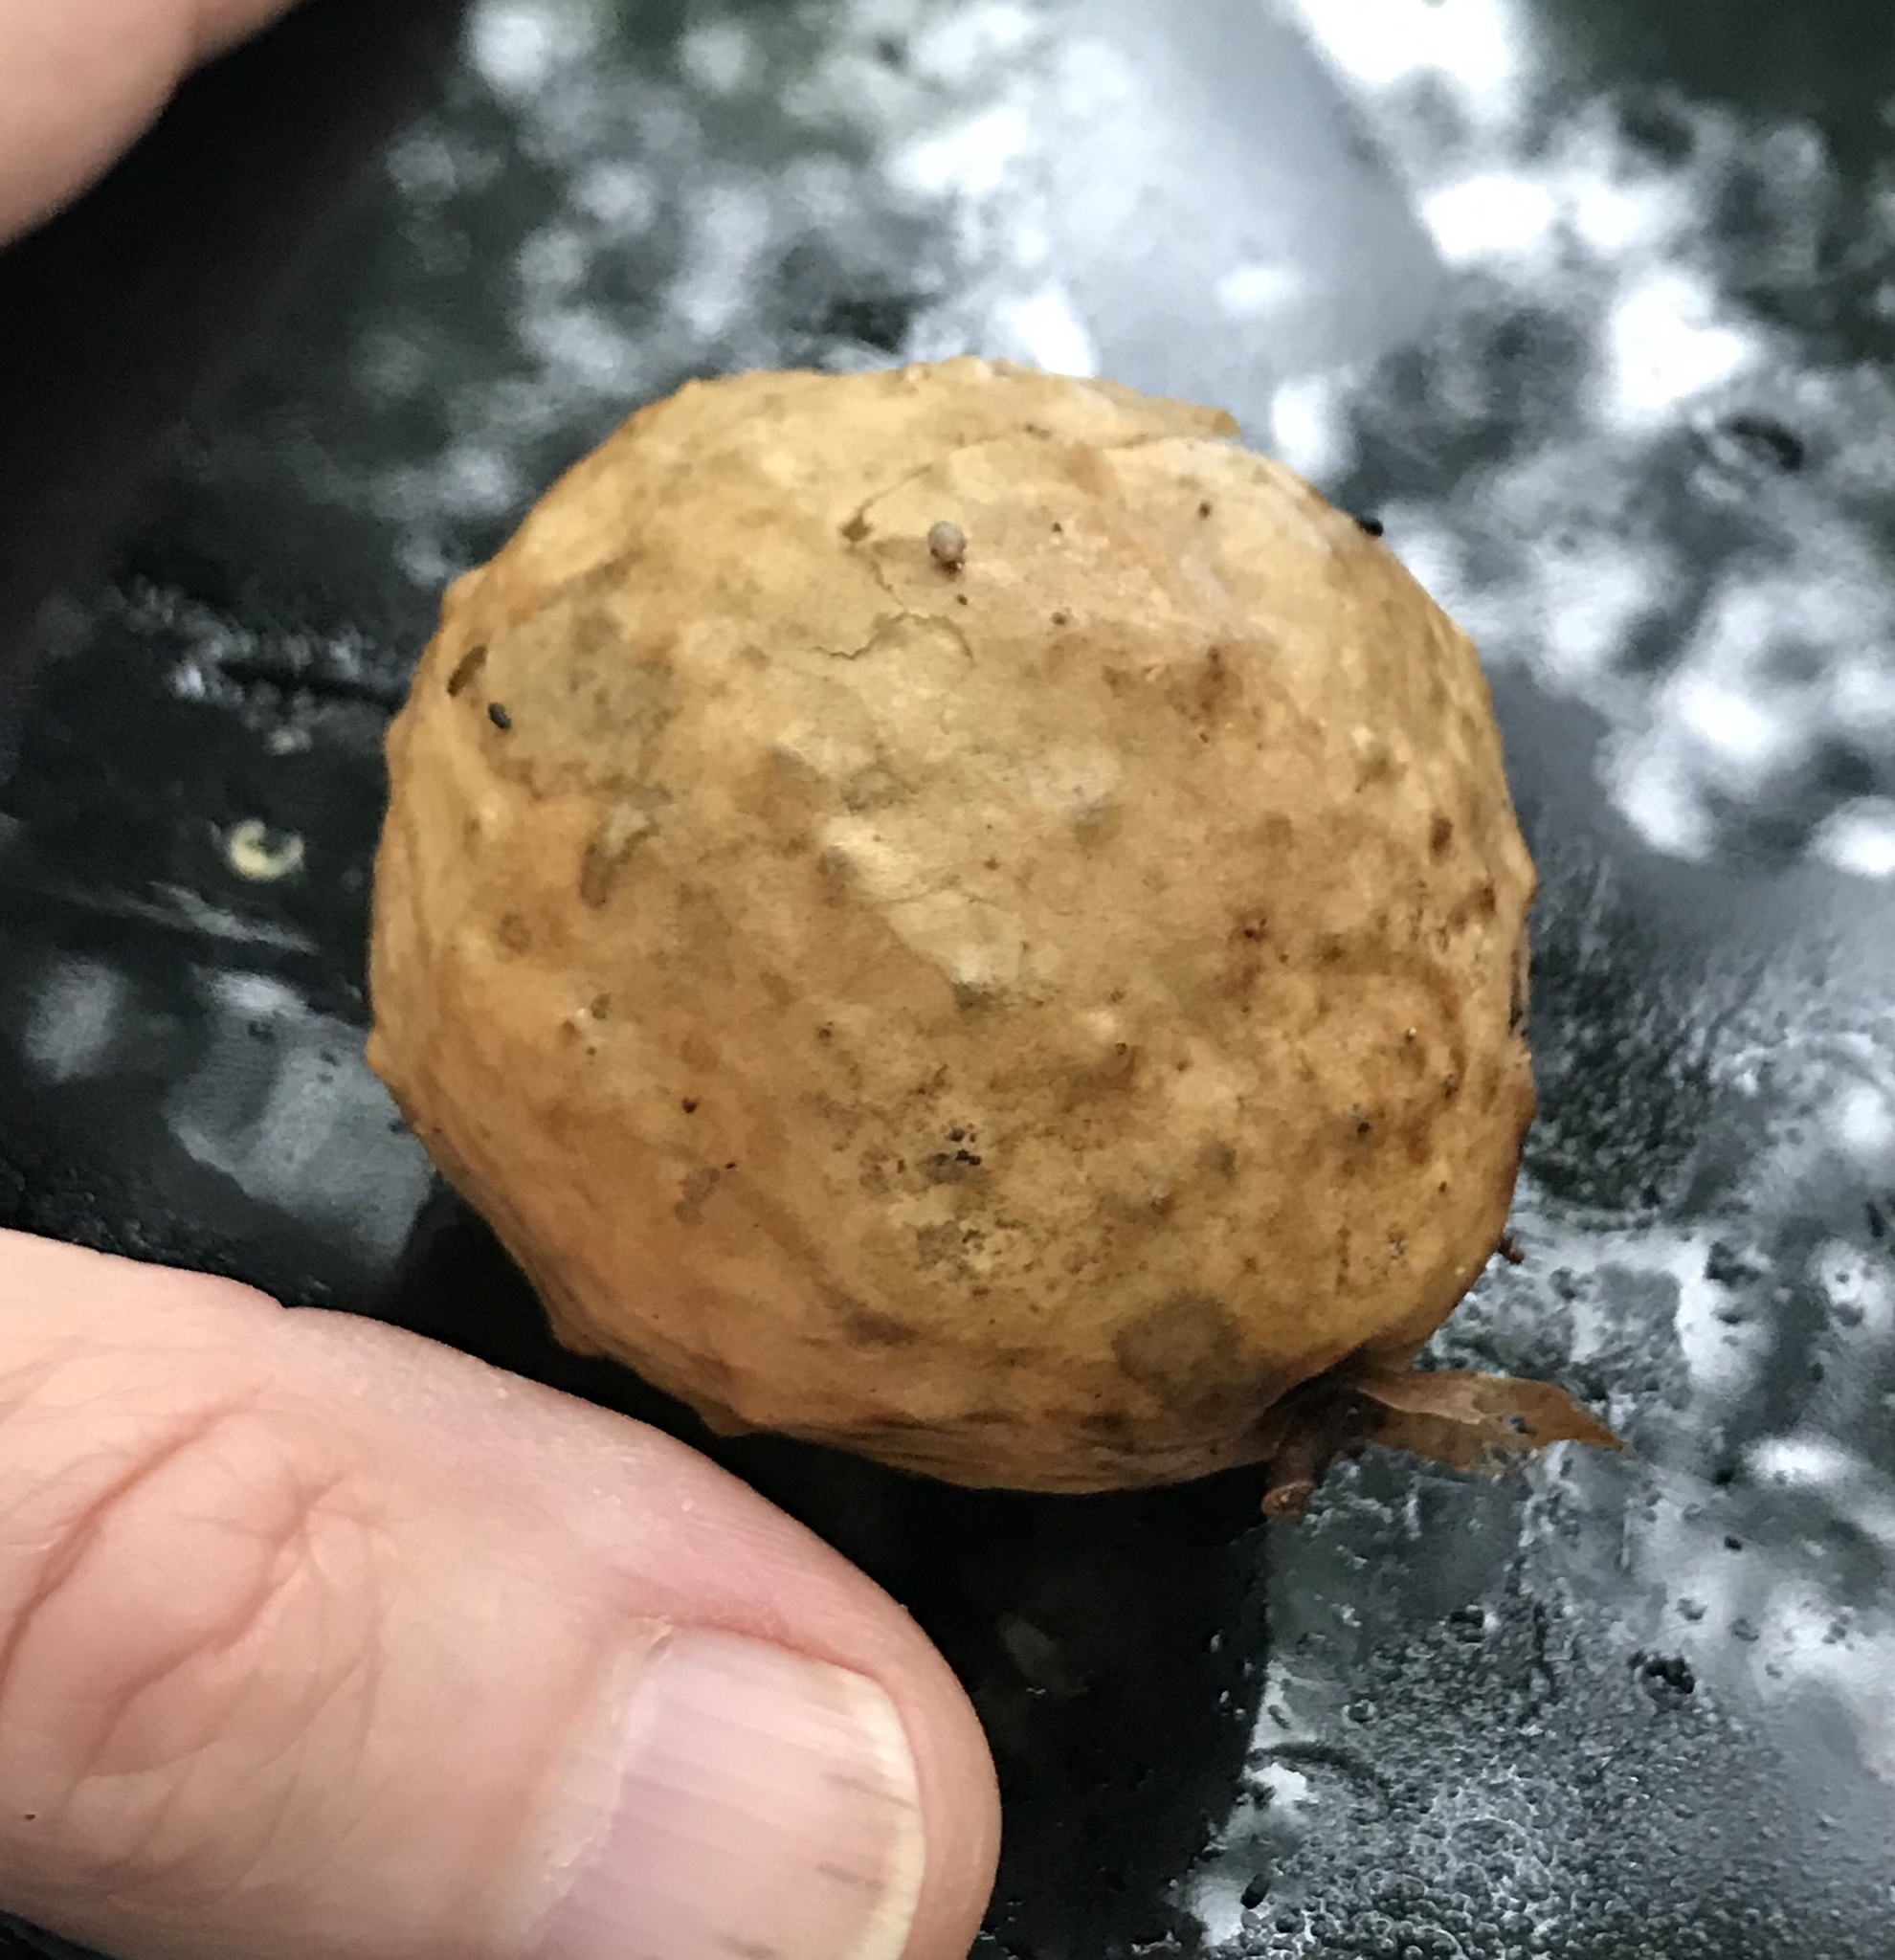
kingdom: Animalia
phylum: Arthropoda
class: Insecta
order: Hymenoptera
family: Cynipidae
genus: Amphibolips
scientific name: Amphibolips
